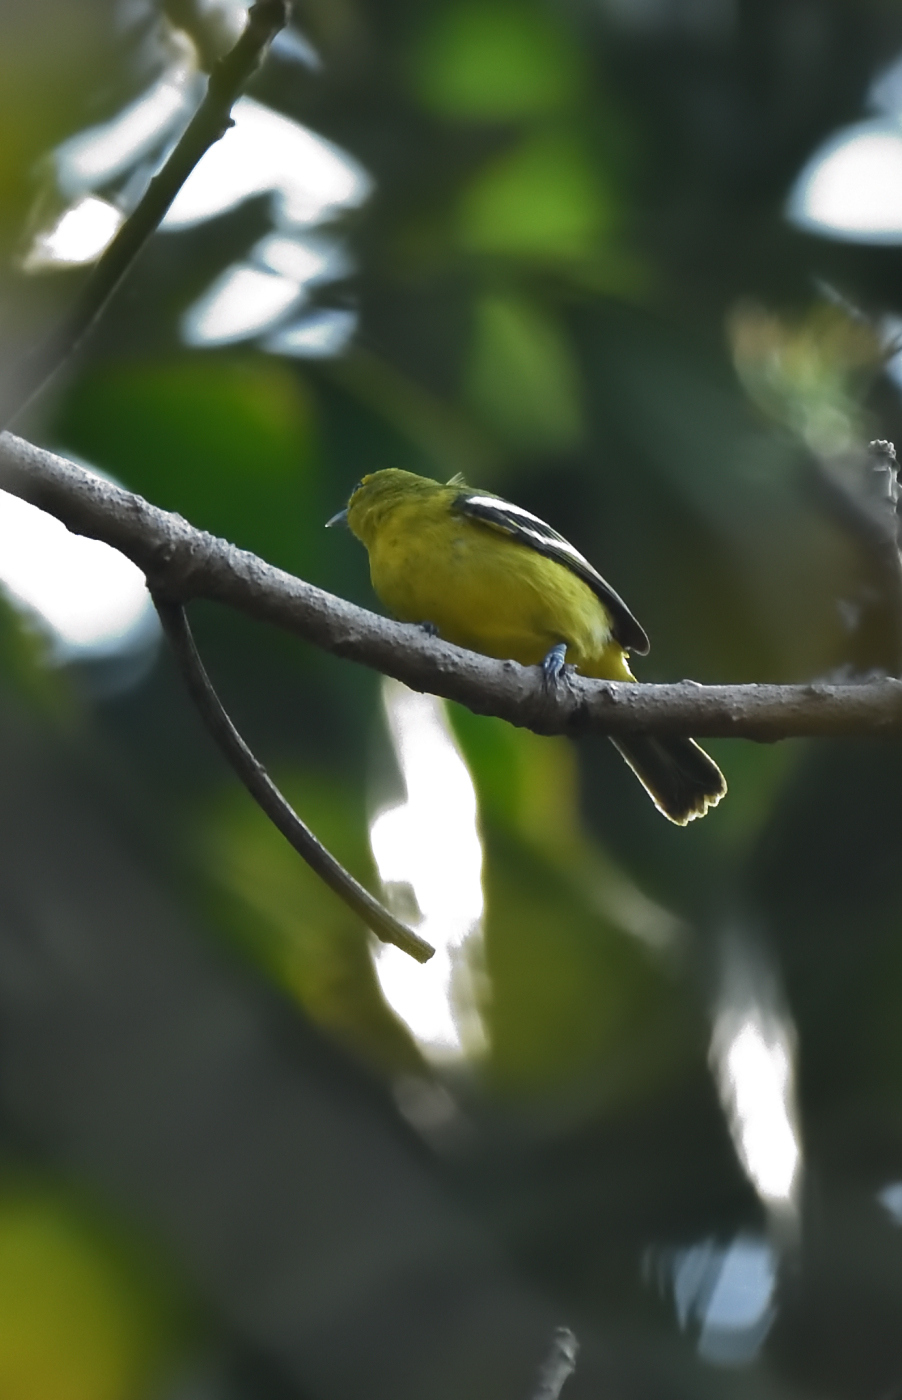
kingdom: Animalia
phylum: Chordata
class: Aves
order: Passeriformes
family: Aegithinidae
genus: Aegithina
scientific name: Aegithina tiphia
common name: Common iora
